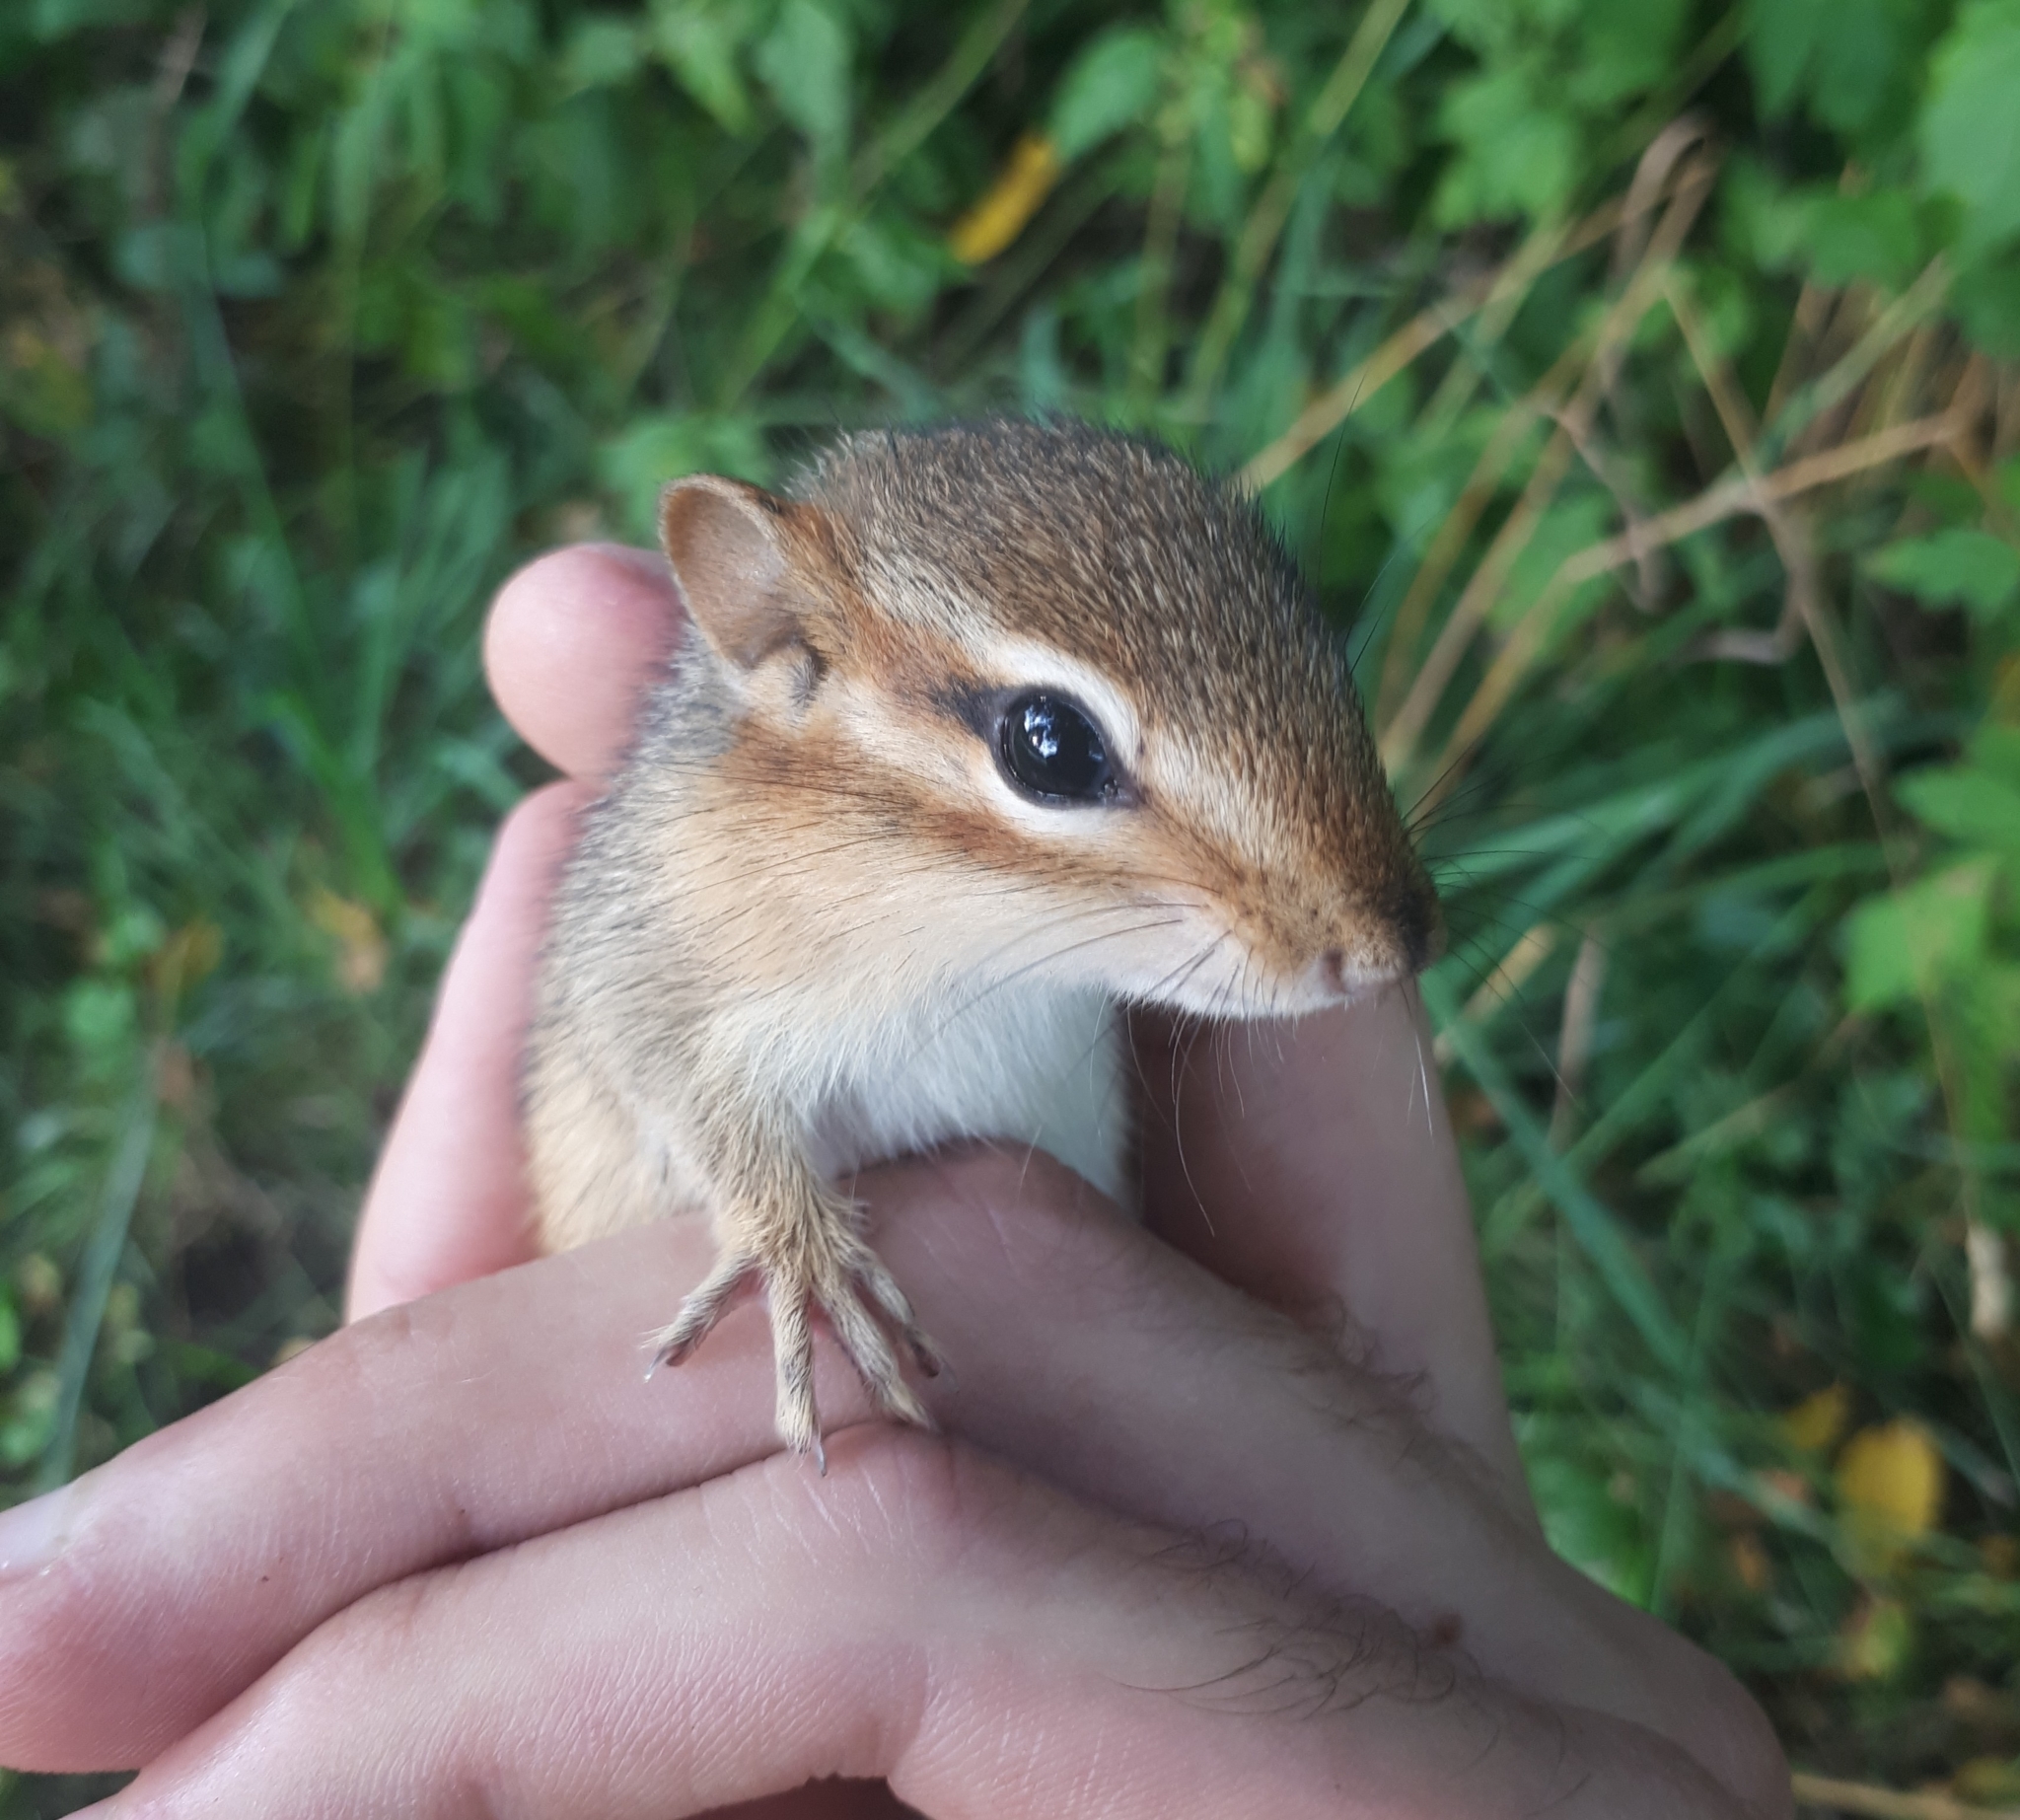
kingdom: Animalia
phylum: Chordata
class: Mammalia
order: Rodentia
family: Sciuridae
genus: Tamias
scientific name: Tamias striatus
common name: Eastern chipmunk
